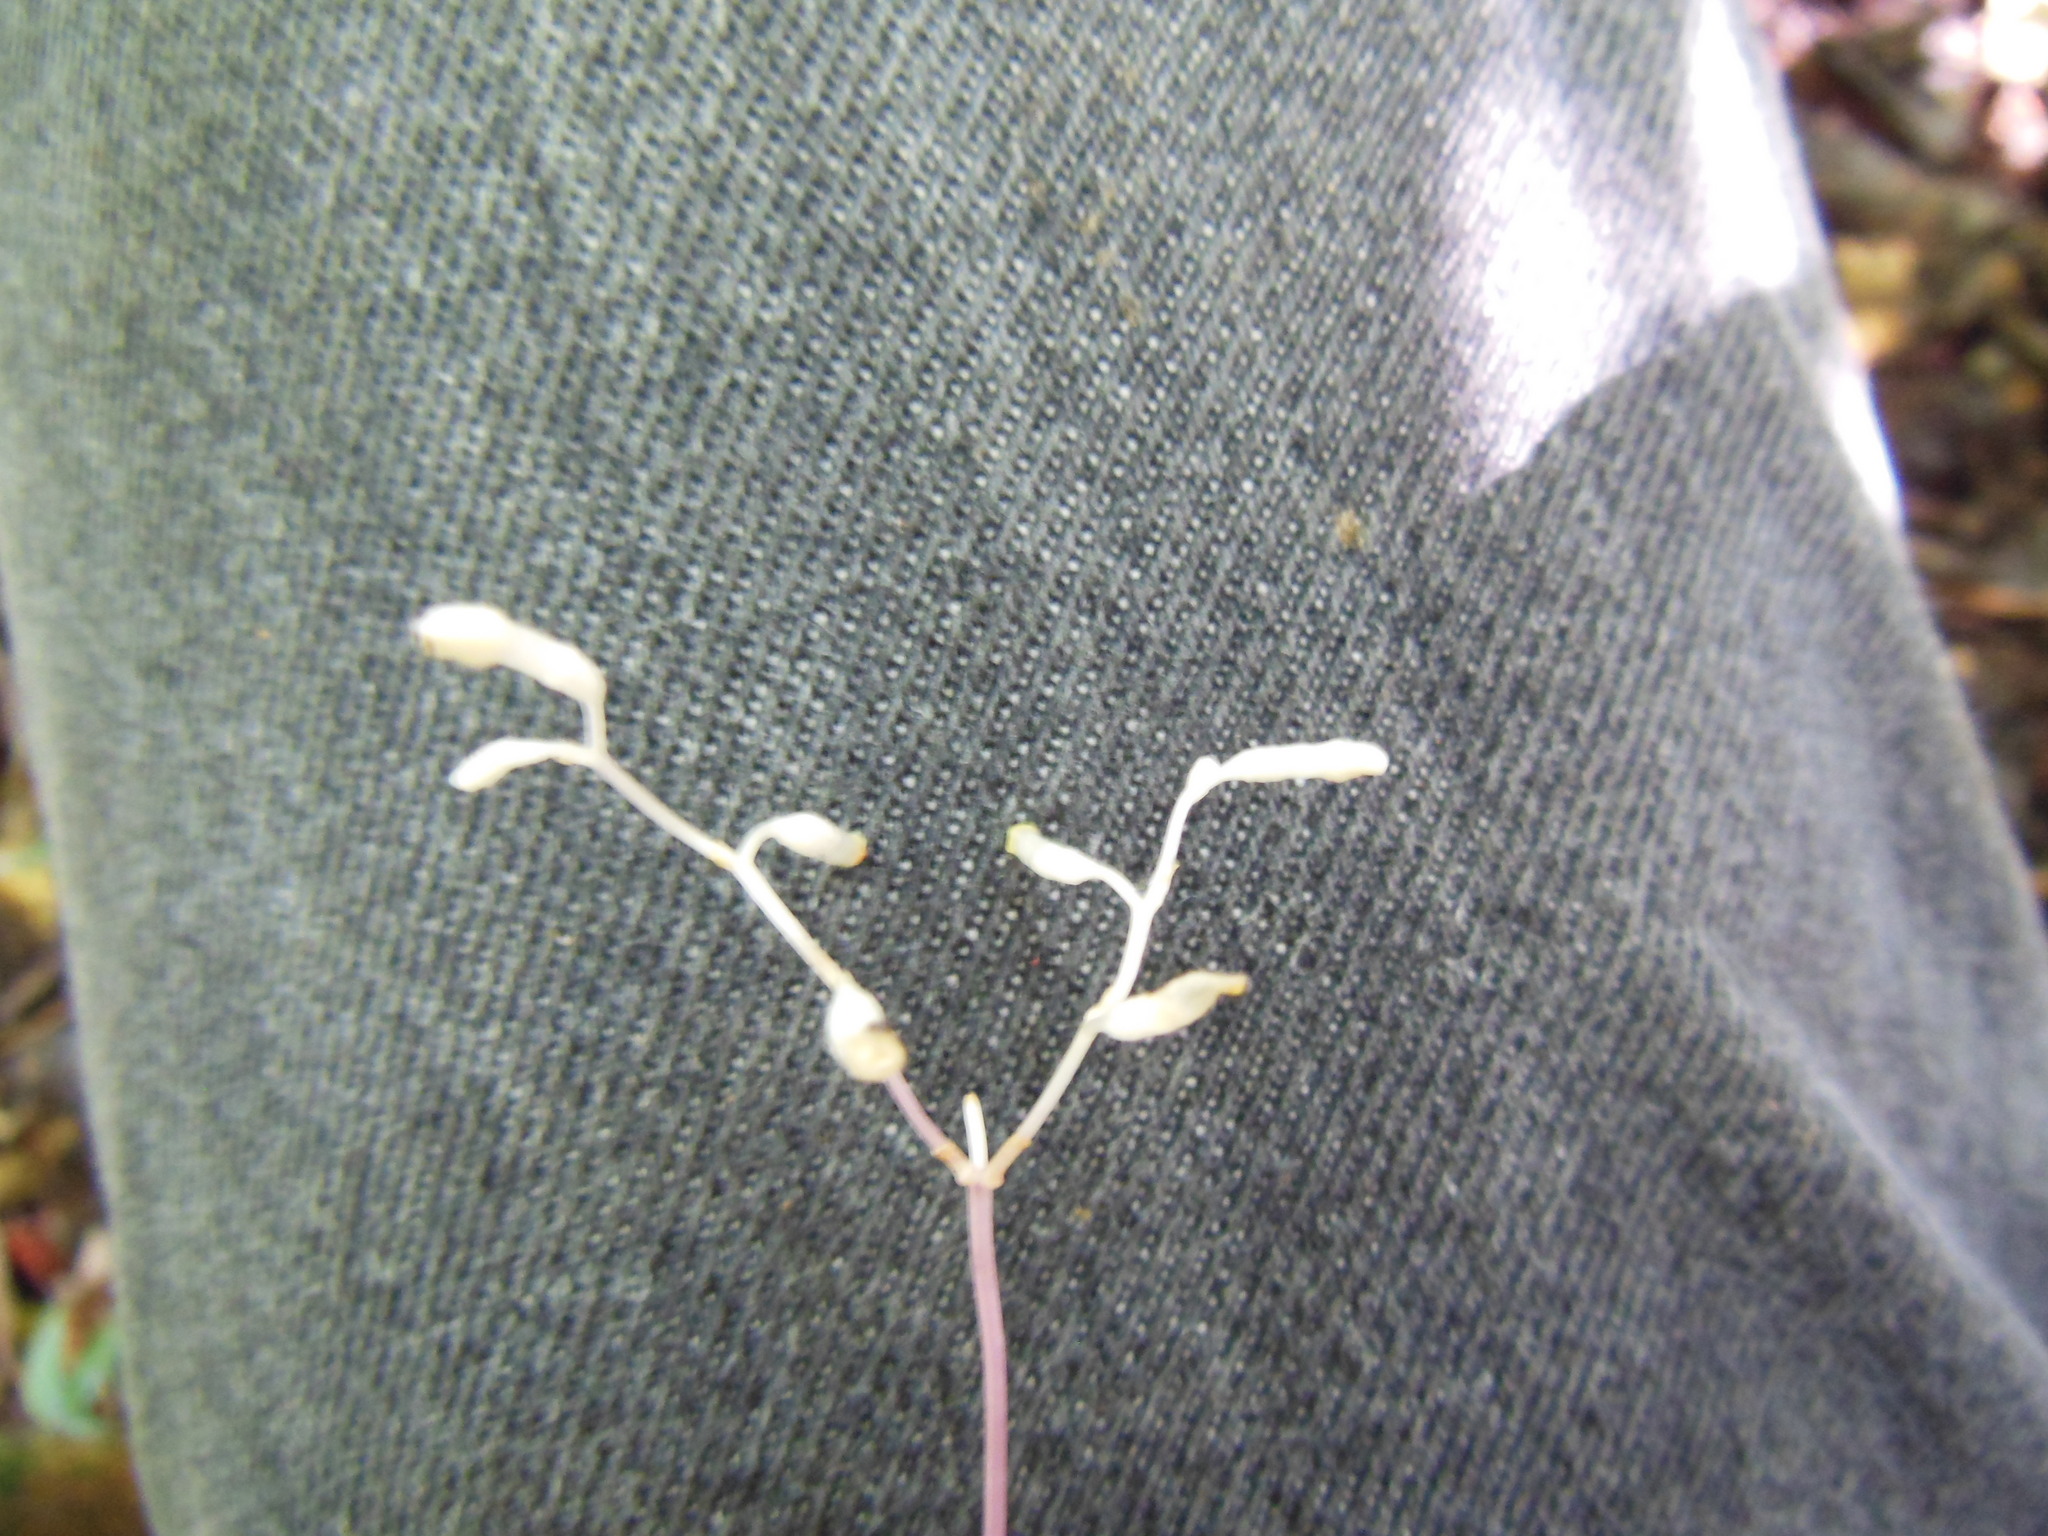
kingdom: Plantae
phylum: Tracheophyta
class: Liliopsida
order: Dioscoreales
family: Burmanniaceae
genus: Gymnosiphon
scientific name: Gymnosiphon divaricatus
